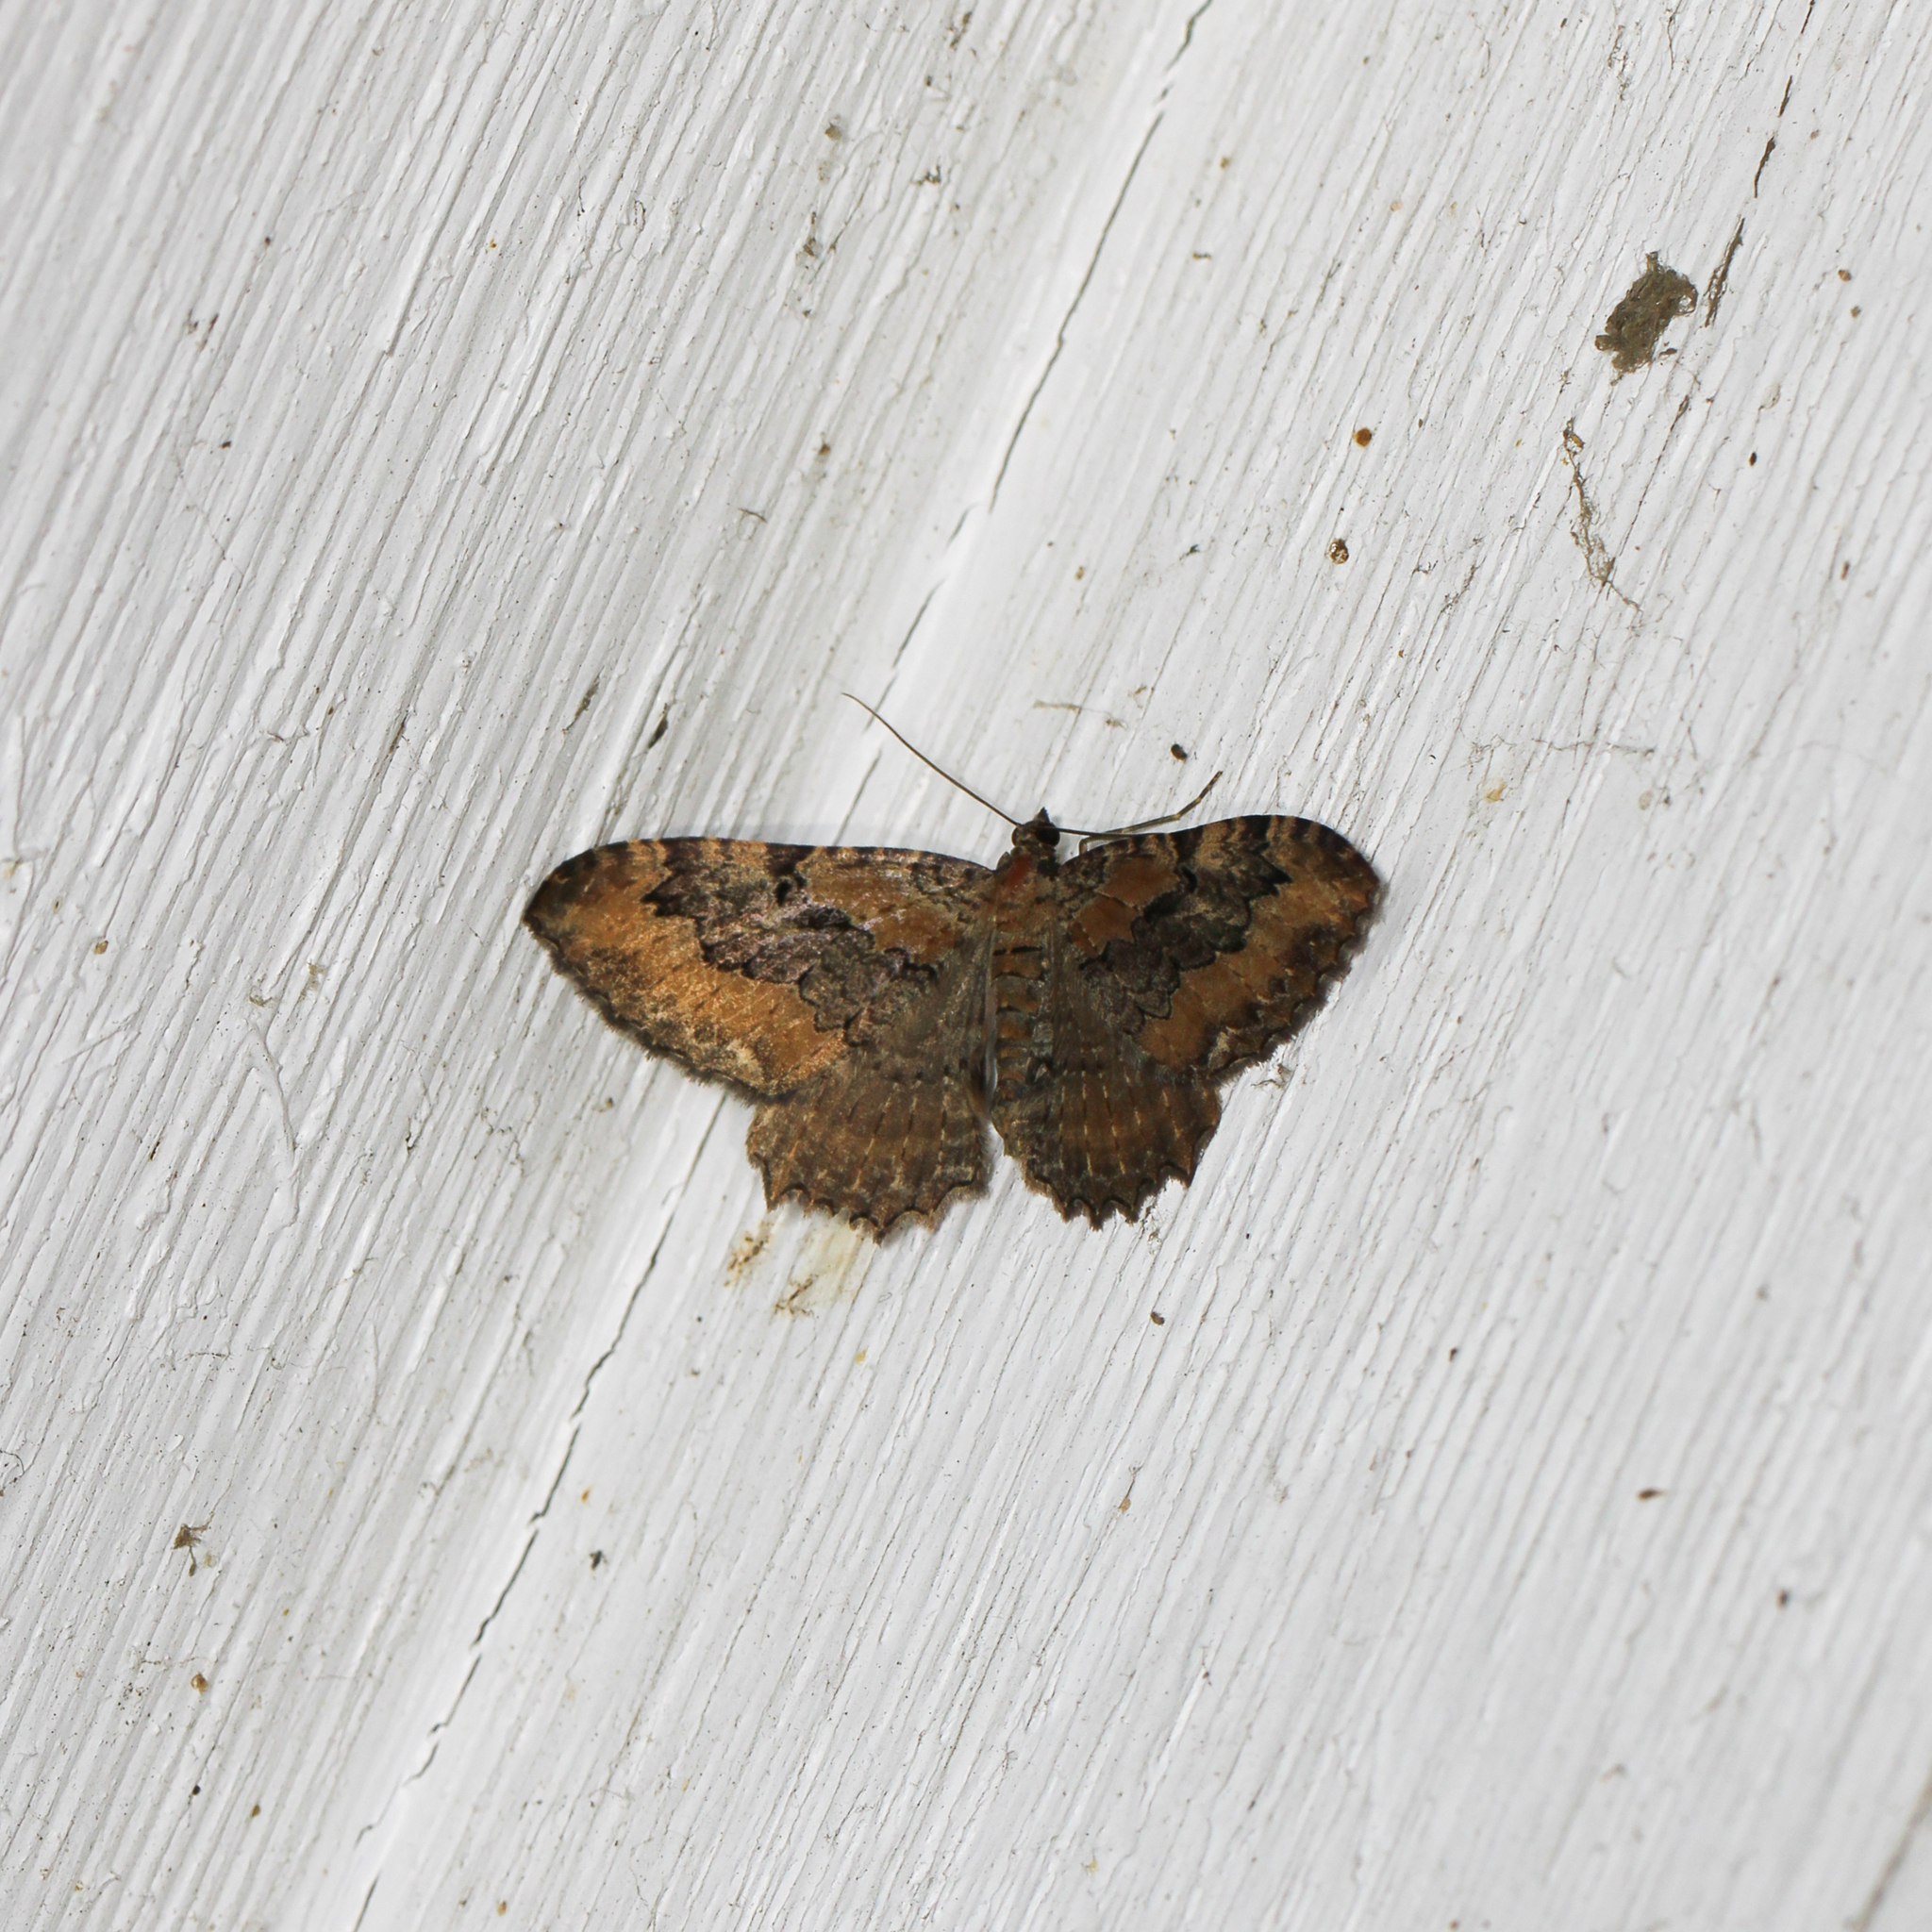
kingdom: Animalia
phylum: Arthropoda
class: Insecta
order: Lepidoptera
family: Geometridae
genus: Rheumaptera
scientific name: Rheumaptera
